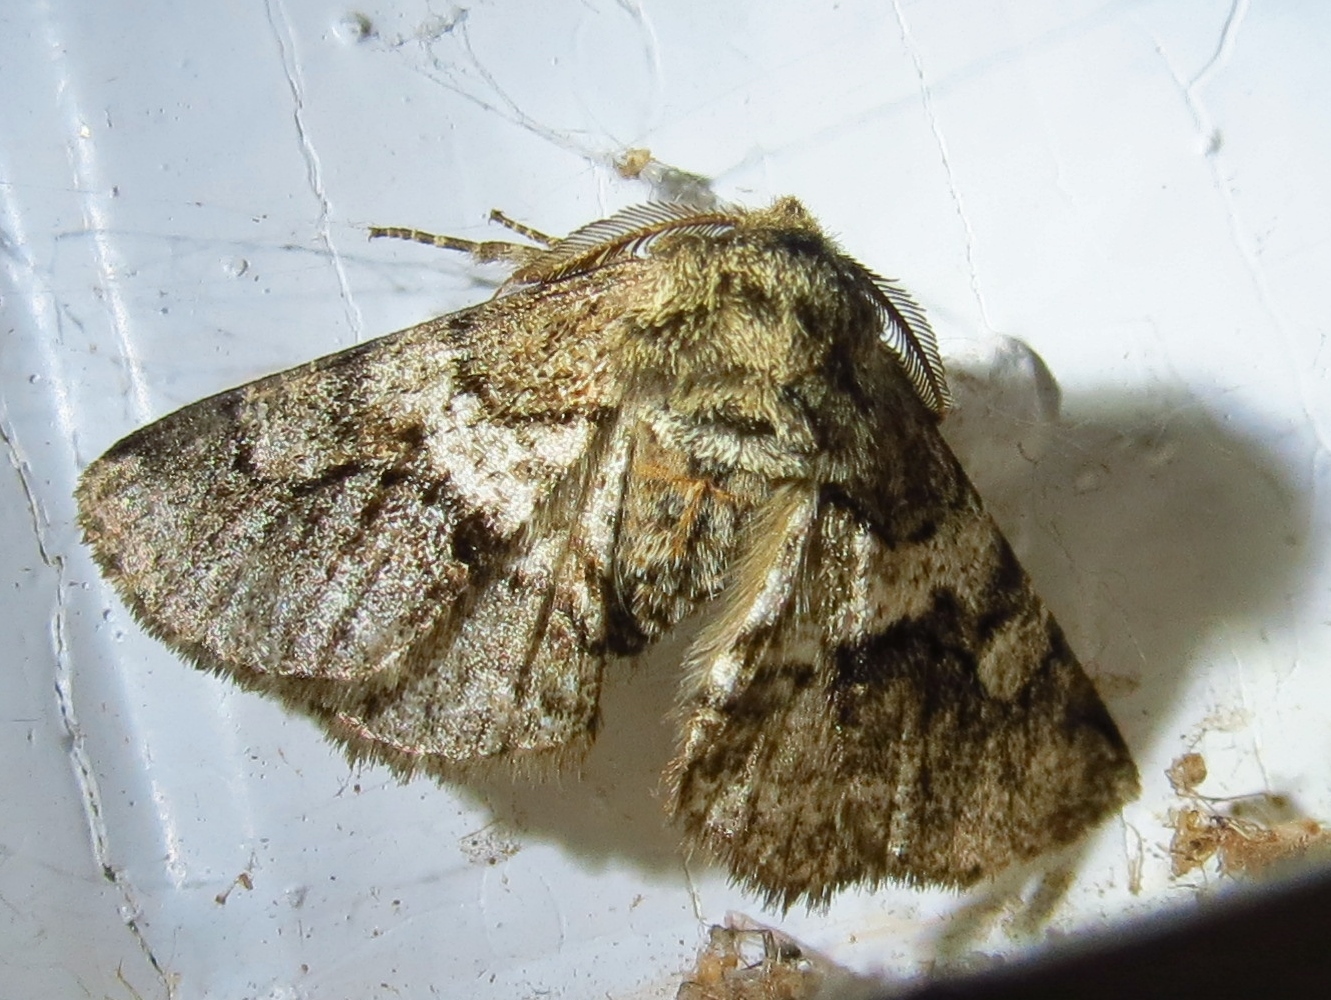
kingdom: Animalia
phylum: Arthropoda
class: Insecta
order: Lepidoptera
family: Geometridae
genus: Lycia
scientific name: Lycia ypsilon
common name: Wooly gray
